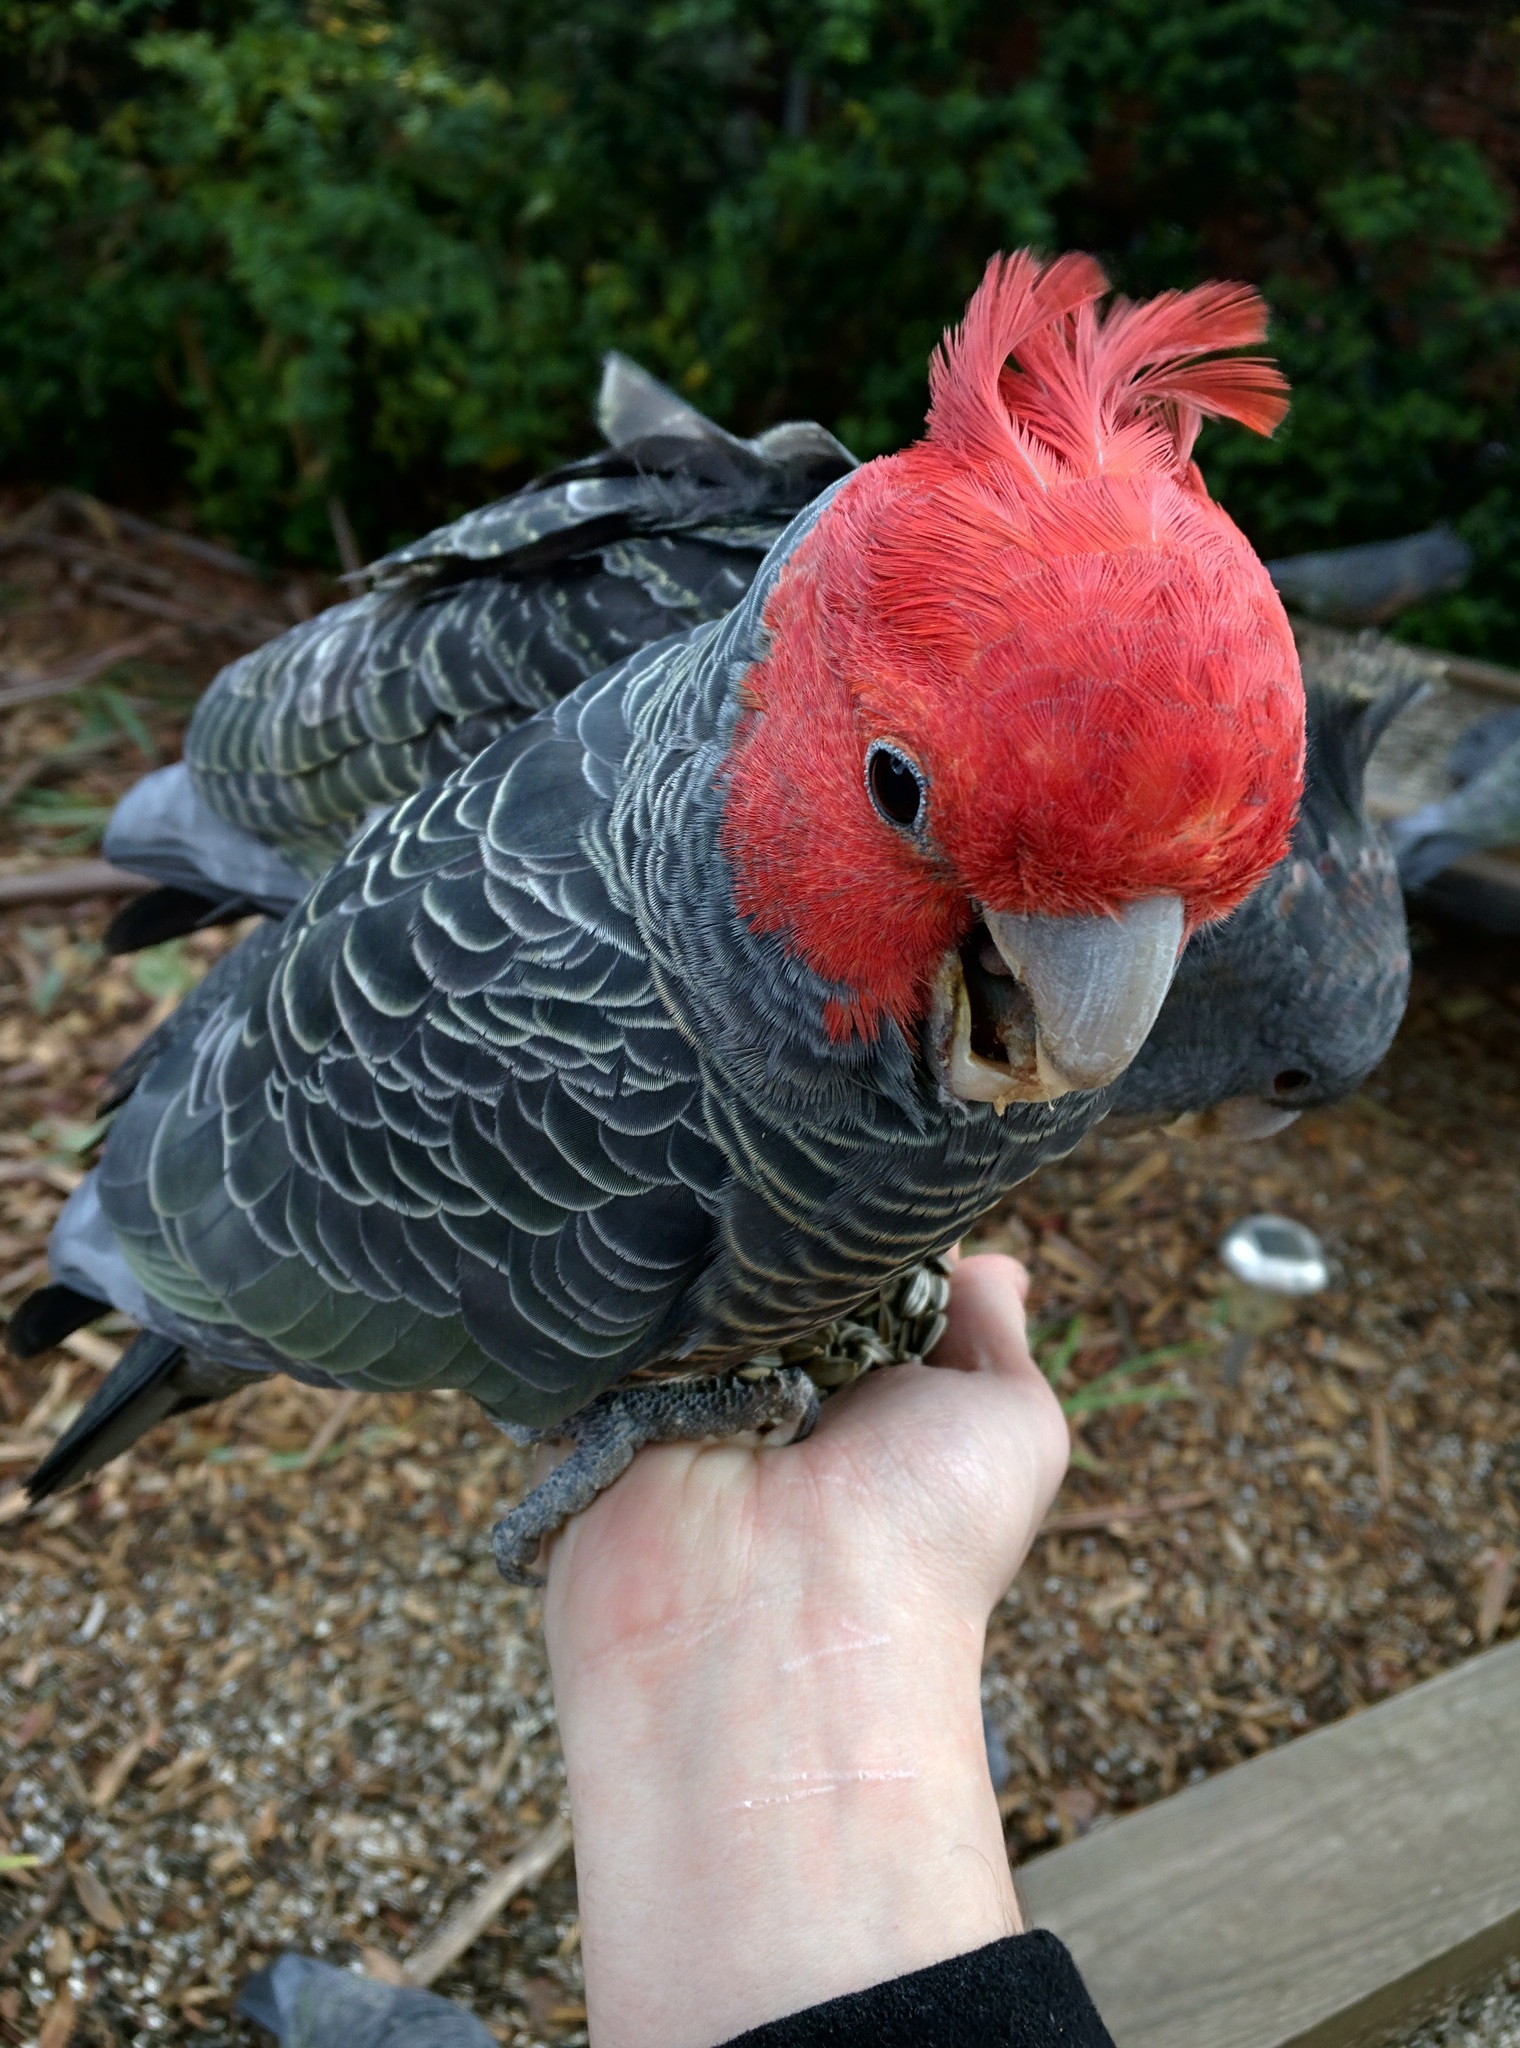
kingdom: Animalia
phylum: Chordata
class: Aves
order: Psittaciformes
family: Psittacidae
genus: Callocephalon
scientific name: Callocephalon fimbriatum
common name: Gang-gang cockatoo
